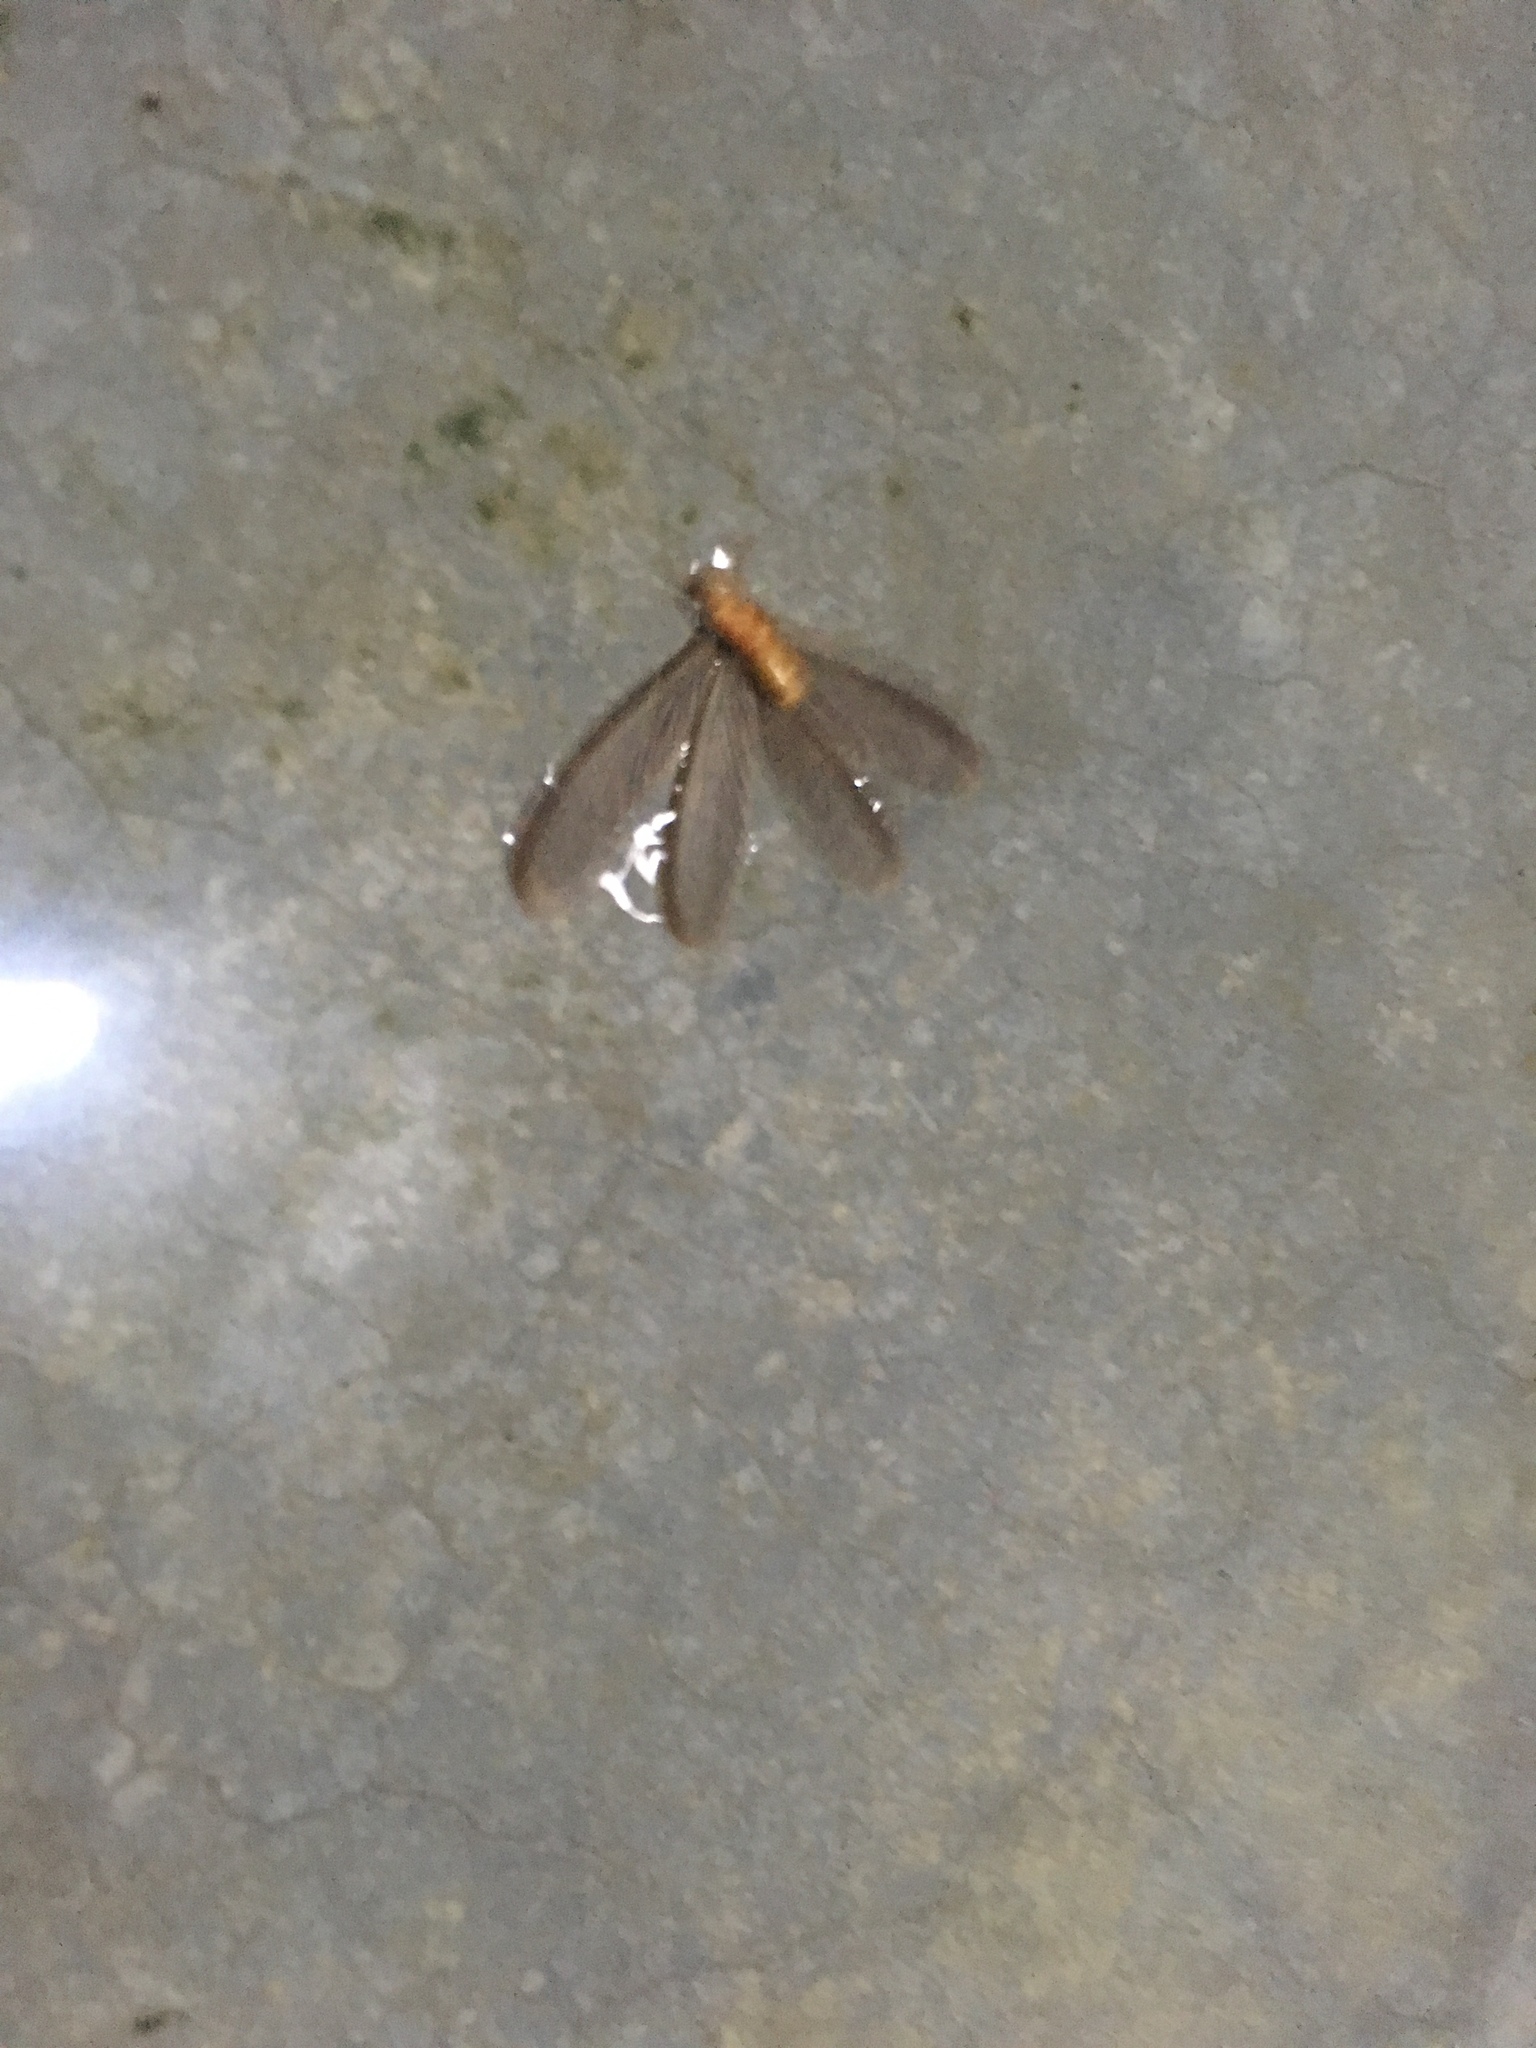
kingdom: Animalia
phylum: Arthropoda
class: Insecta
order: Blattodea
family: Termitidae
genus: Odontotermes
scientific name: Odontotermes formosanus
